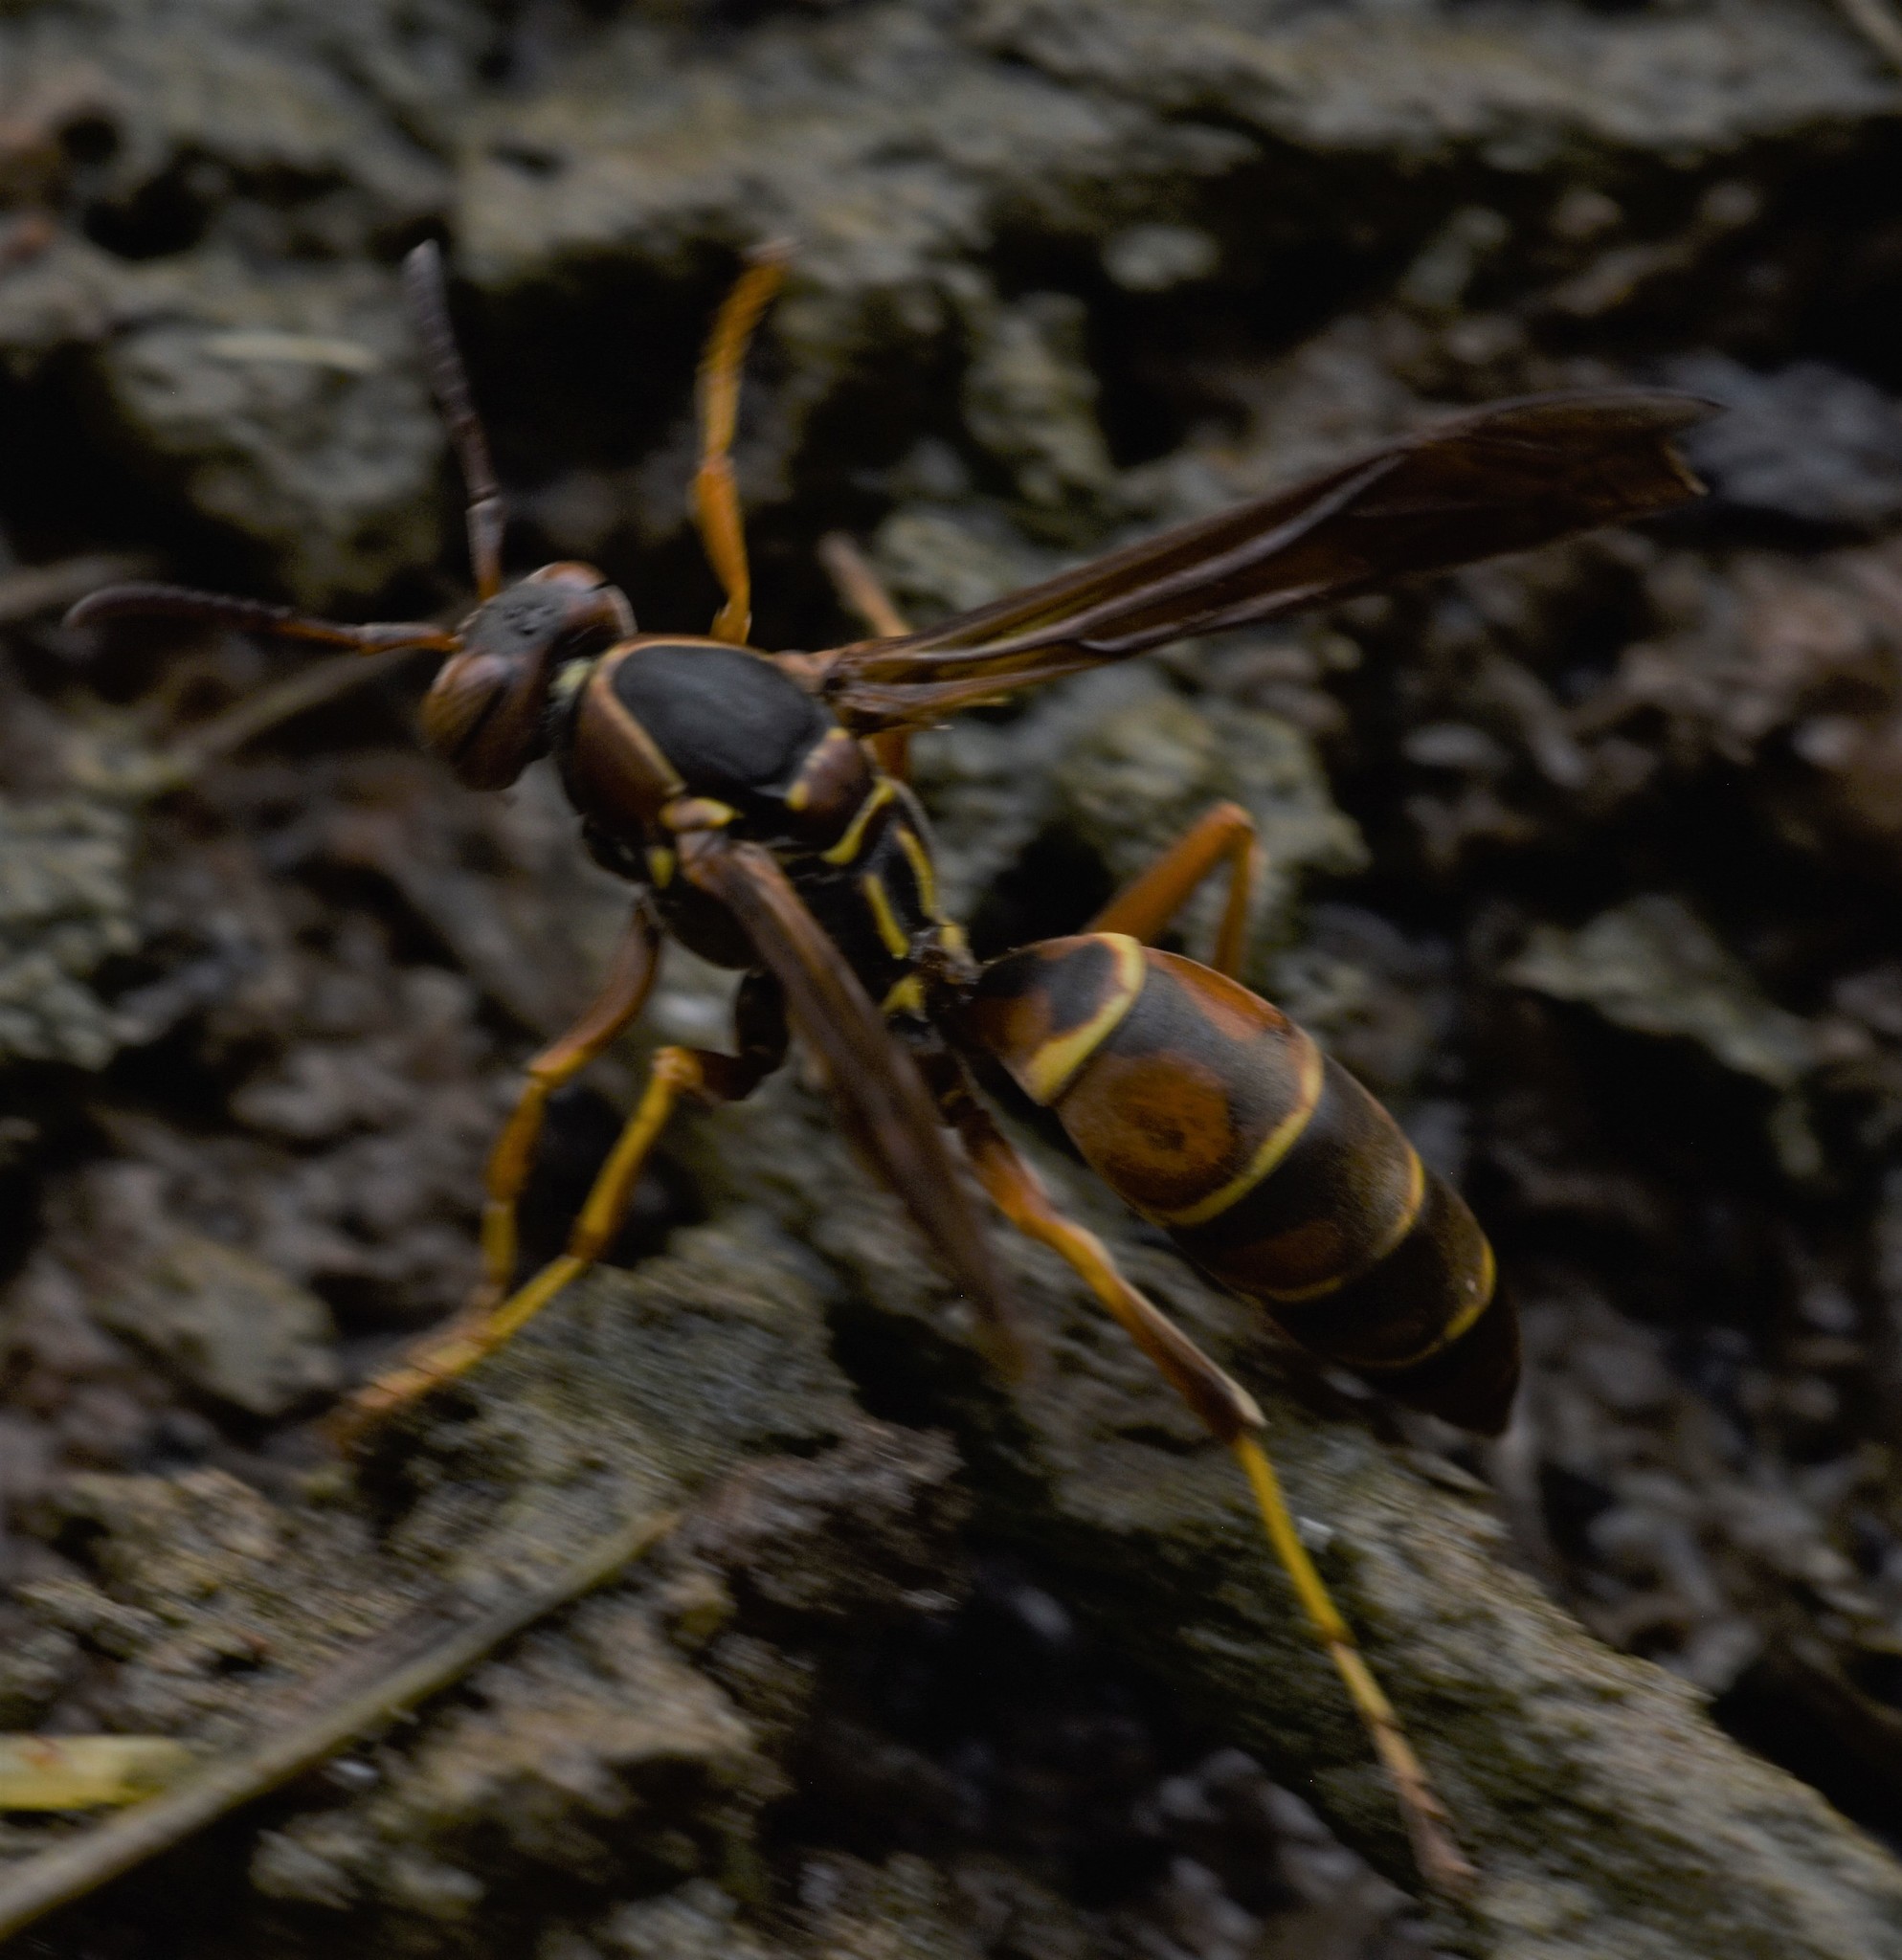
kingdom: Animalia
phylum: Arthropoda
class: Insecta
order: Hymenoptera
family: Eumenidae
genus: Polistes
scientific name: Polistes fuscatus
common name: Dark paper wasp
